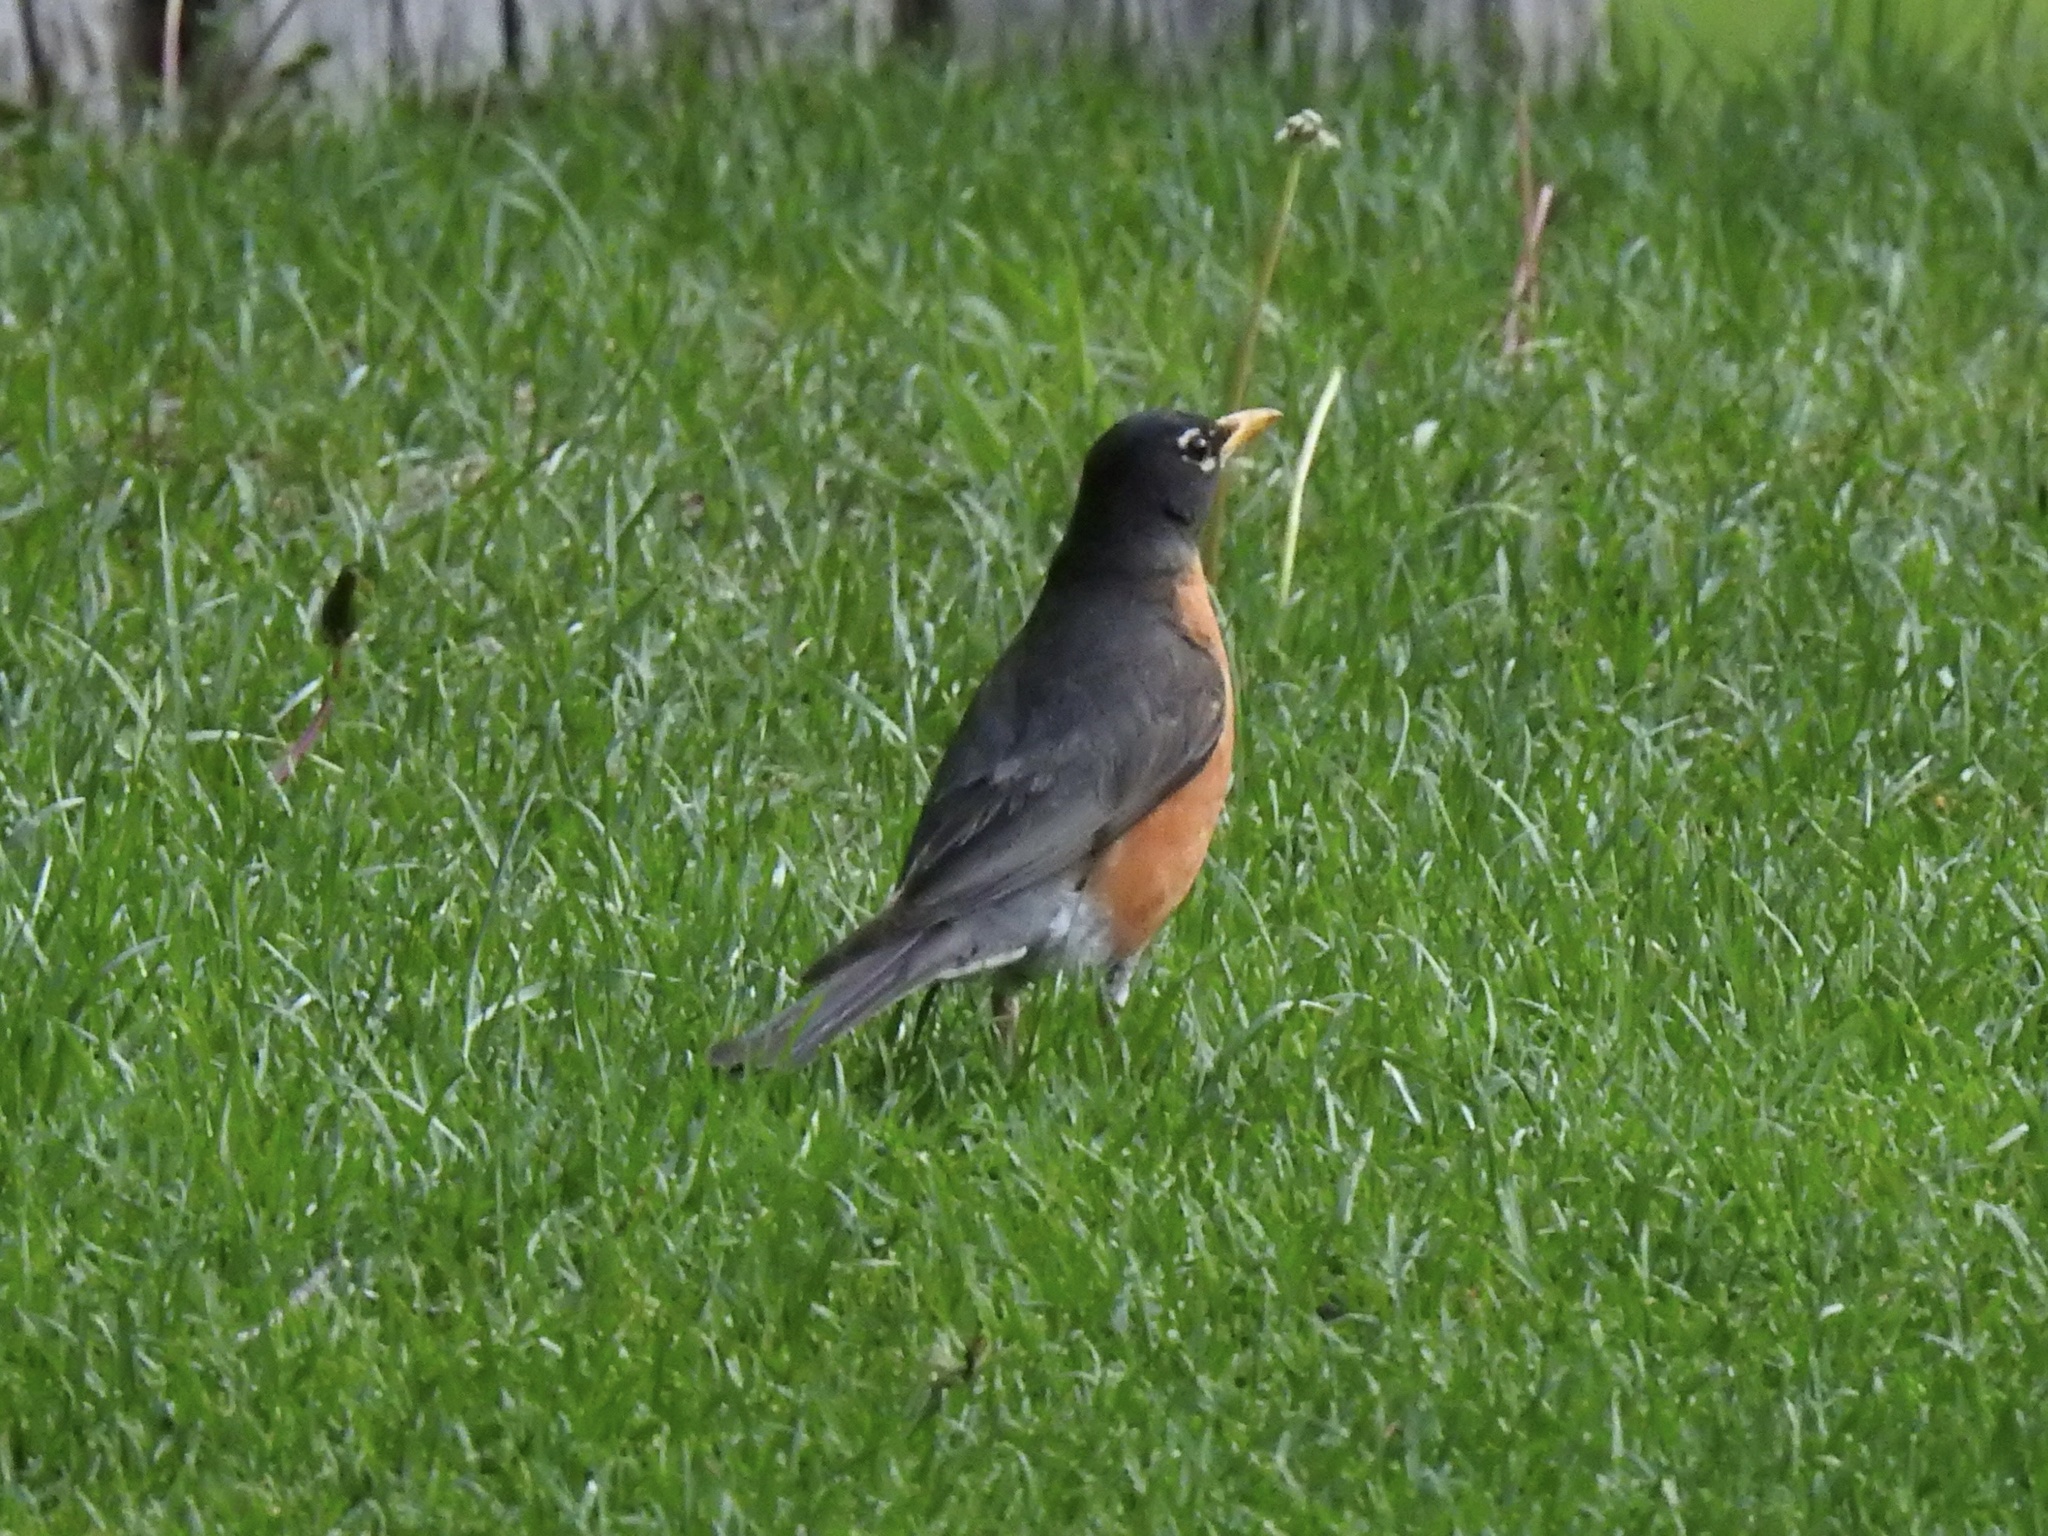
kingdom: Animalia
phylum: Chordata
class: Aves
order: Passeriformes
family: Turdidae
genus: Turdus
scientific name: Turdus migratorius
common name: American robin
